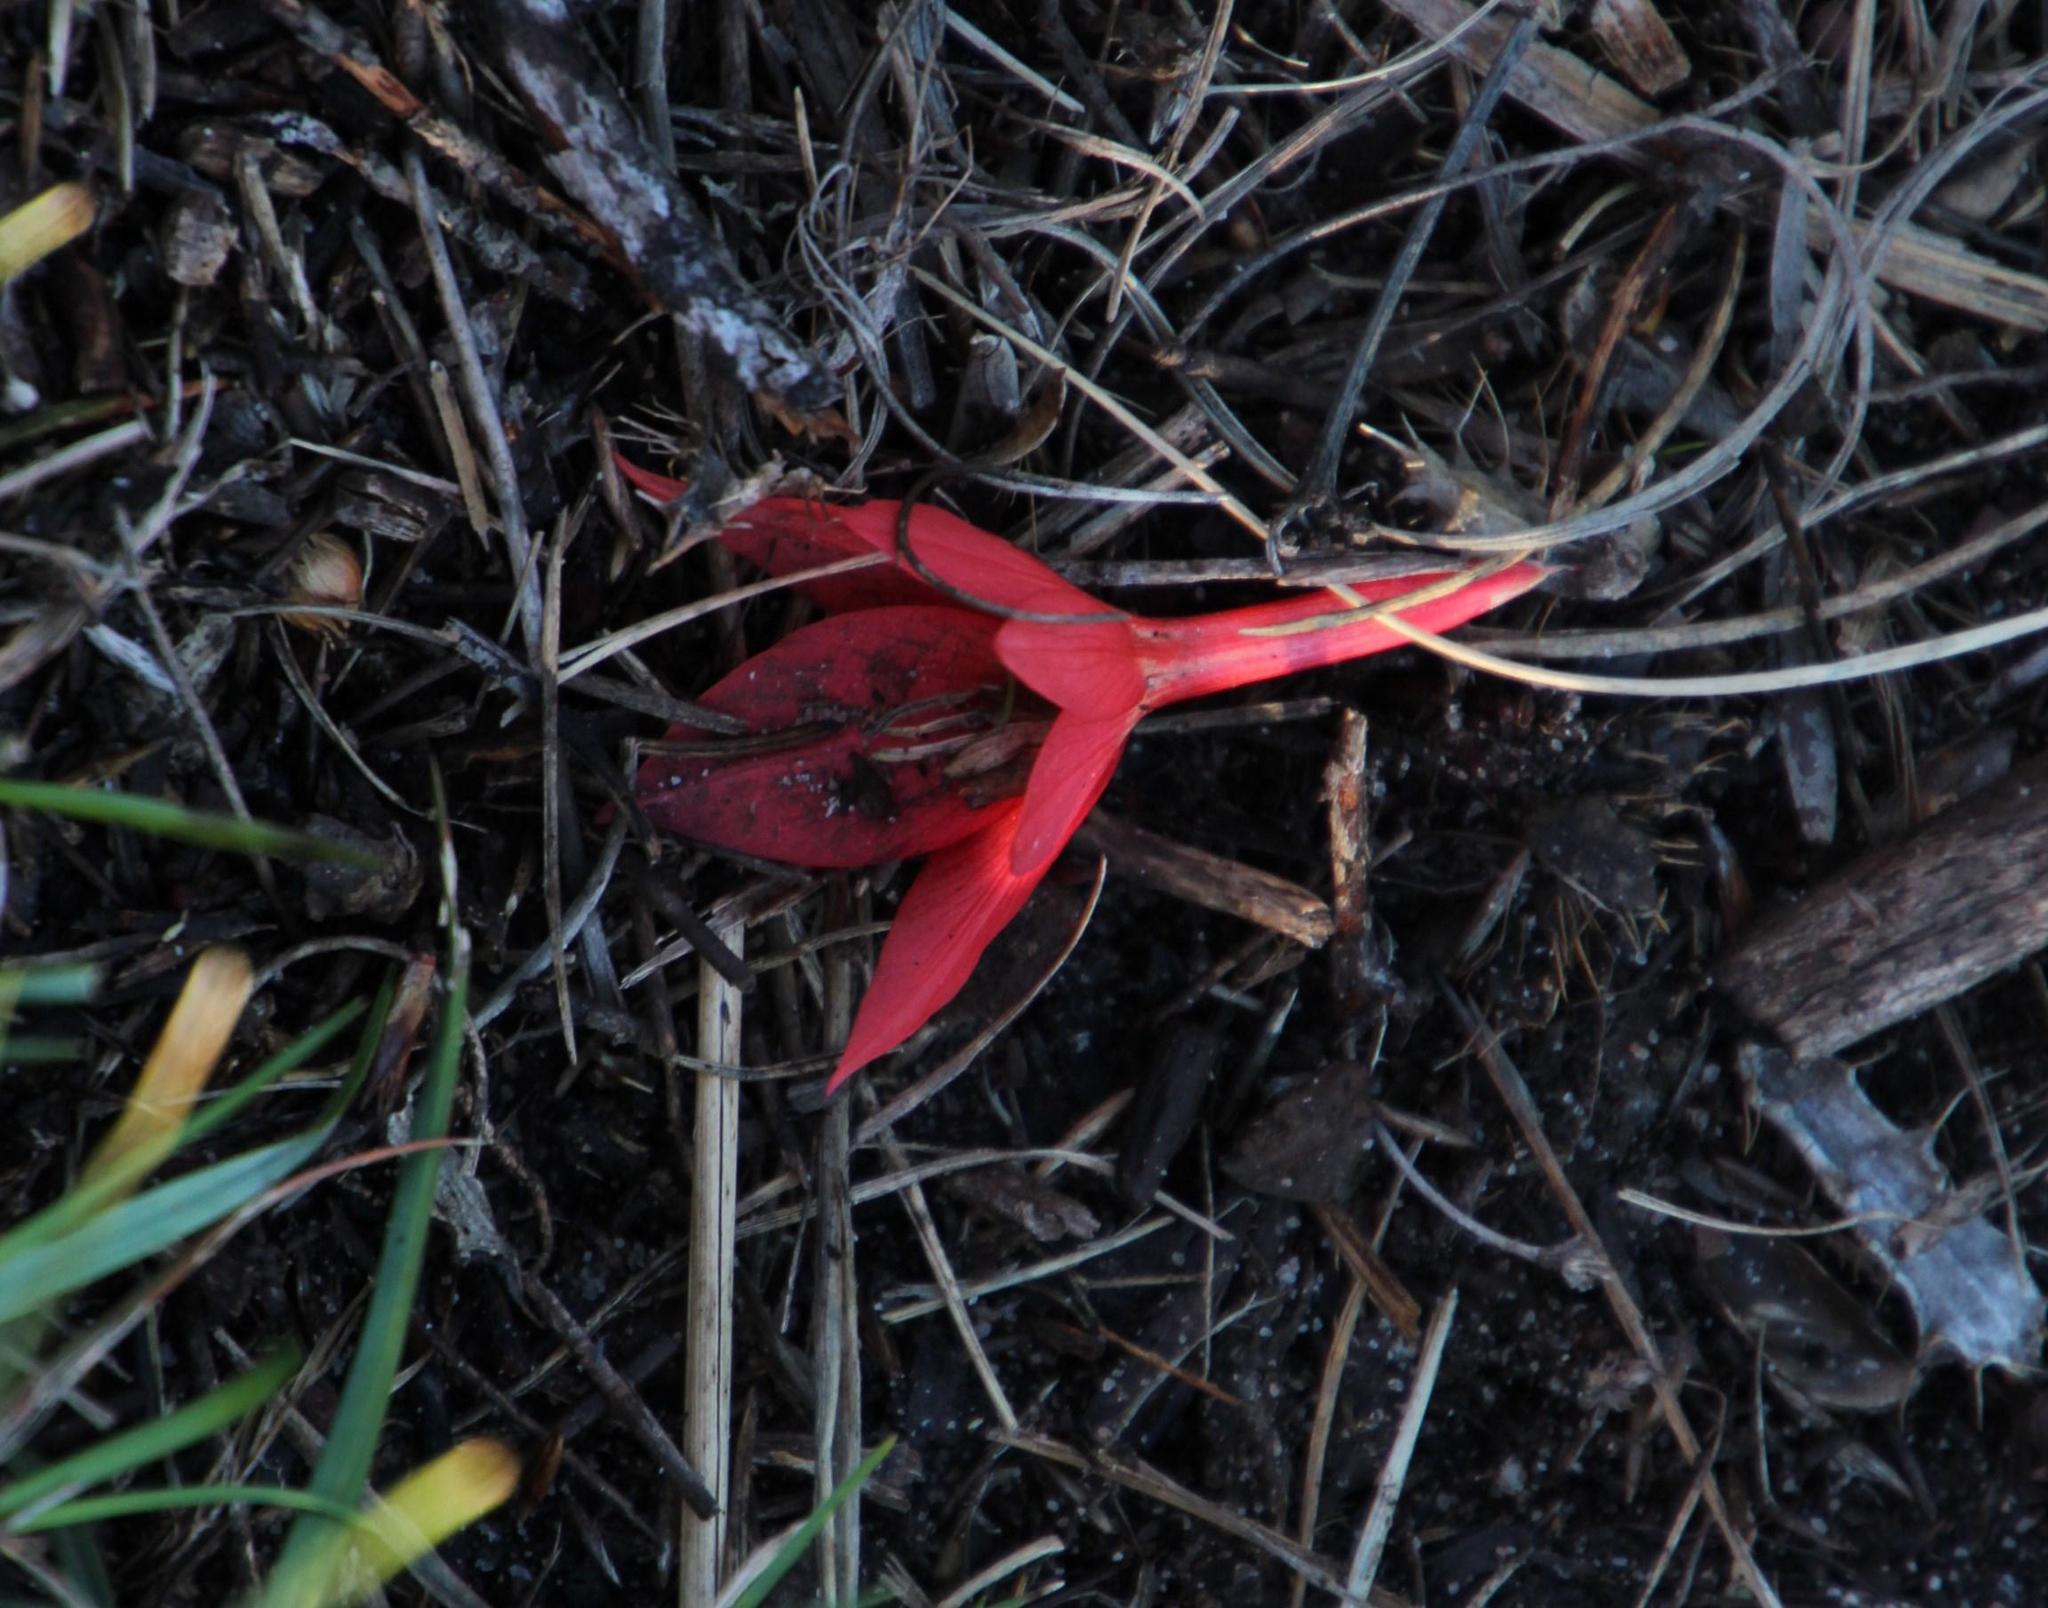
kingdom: Plantae
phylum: Tracheophyta
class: Liliopsida
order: Asparagales
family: Iridaceae
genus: Gladiolus
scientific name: Gladiolus priorii
